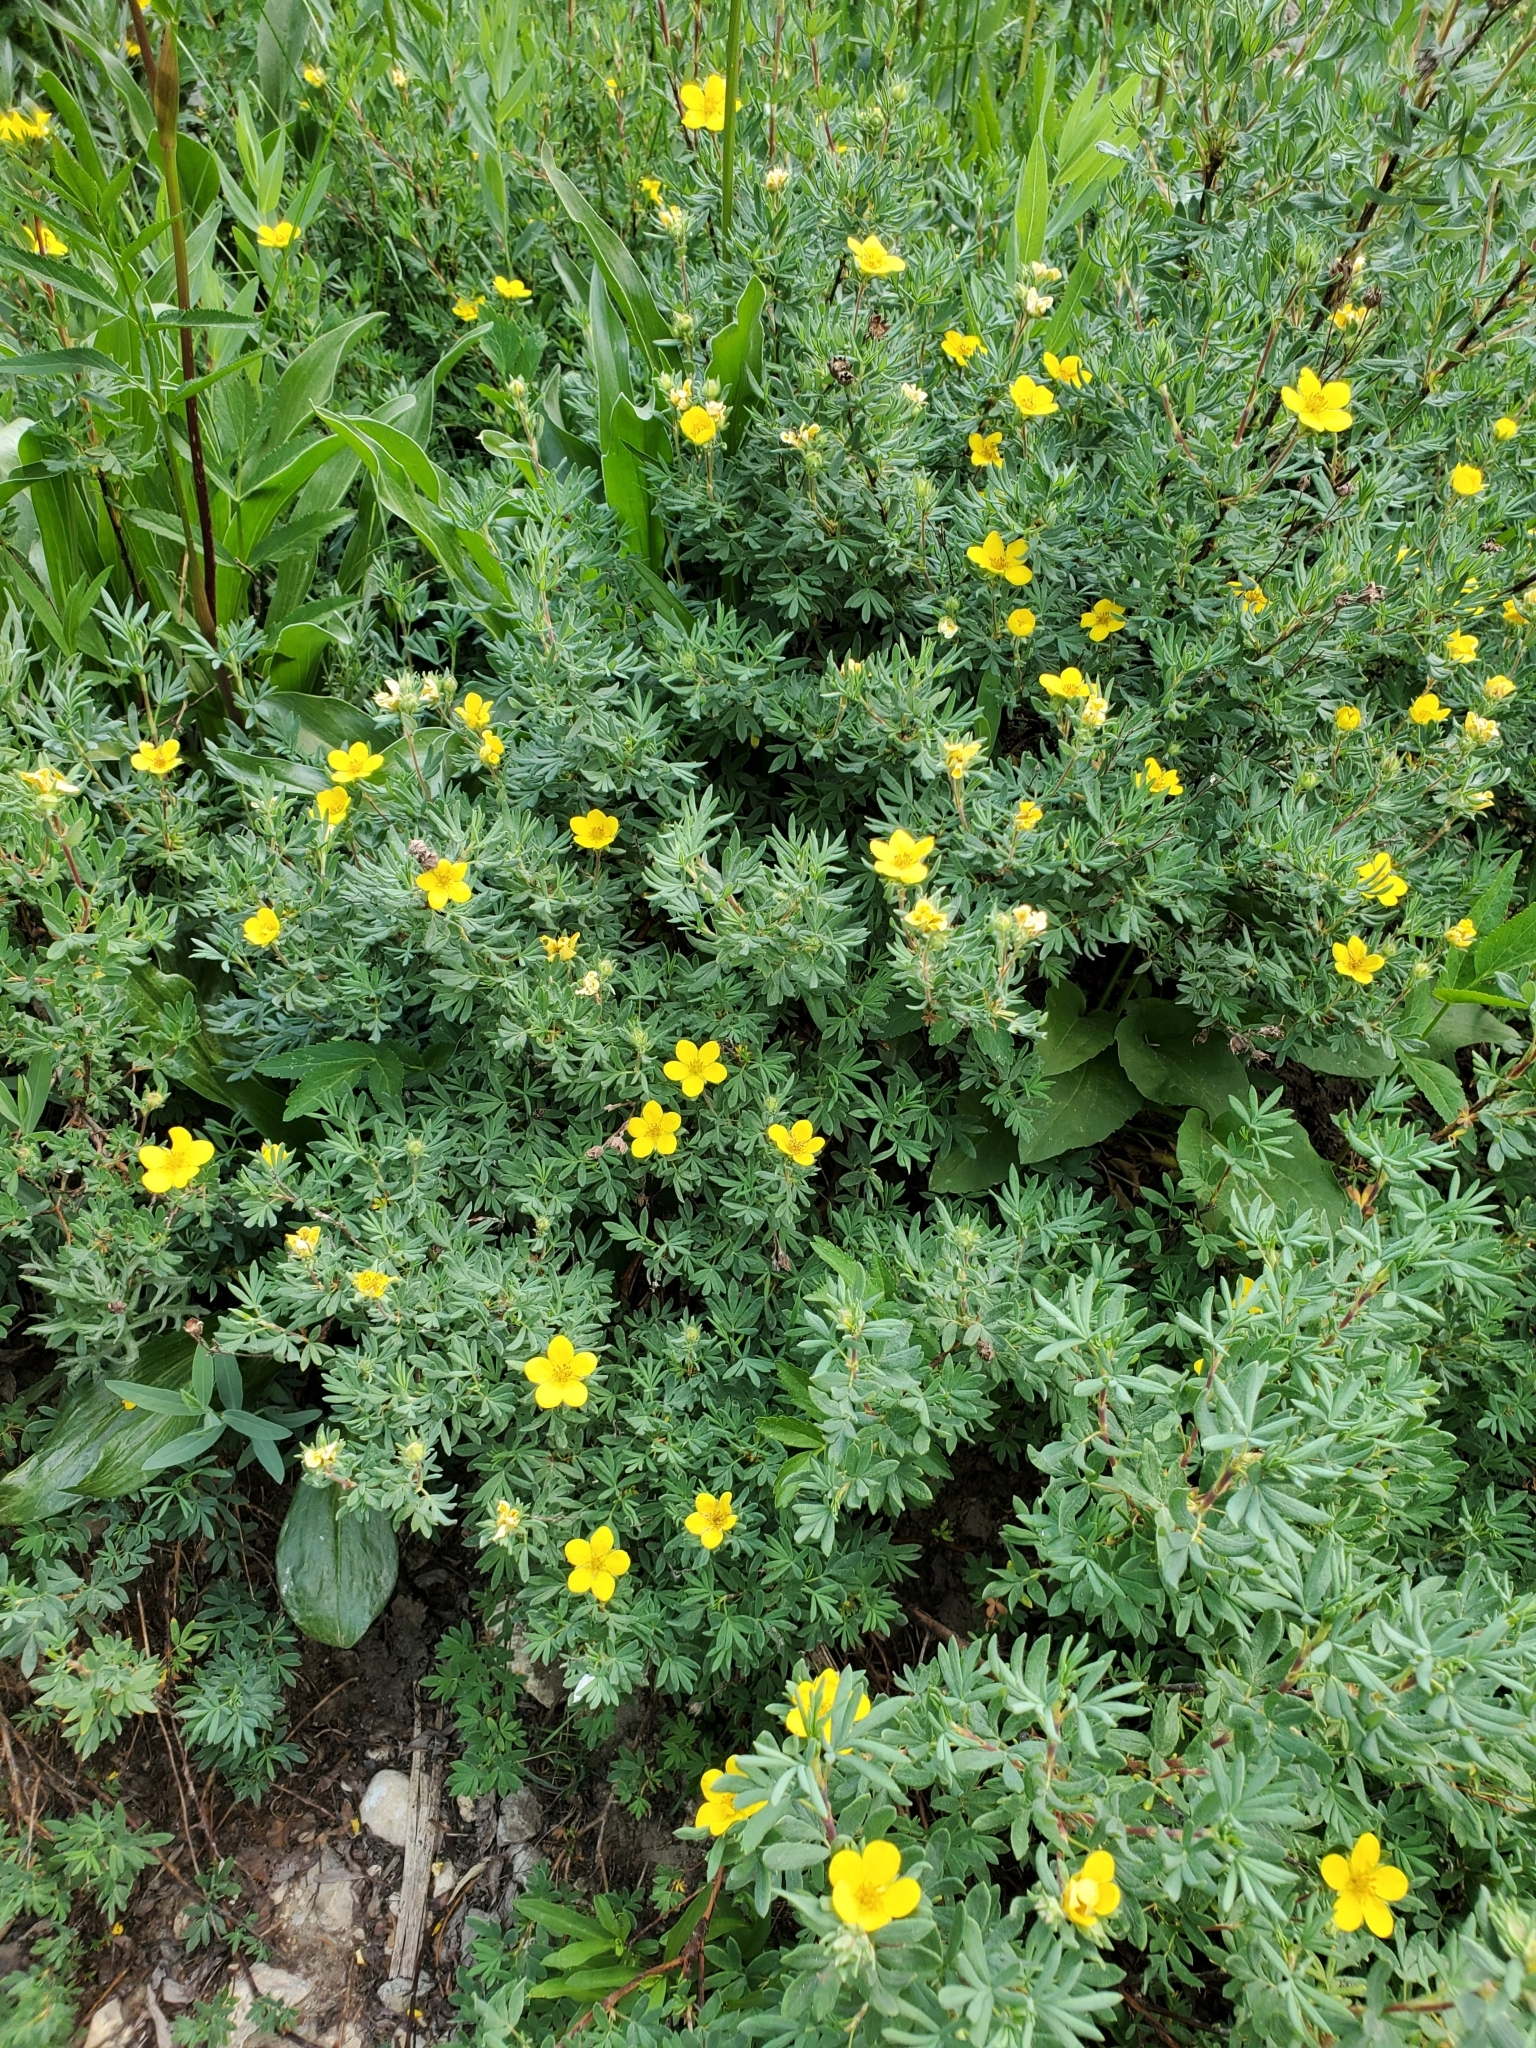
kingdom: Plantae
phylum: Tracheophyta
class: Magnoliopsida
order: Rosales
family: Rosaceae
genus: Dasiphora
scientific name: Dasiphora fruticosa
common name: Shrubby cinquefoil
